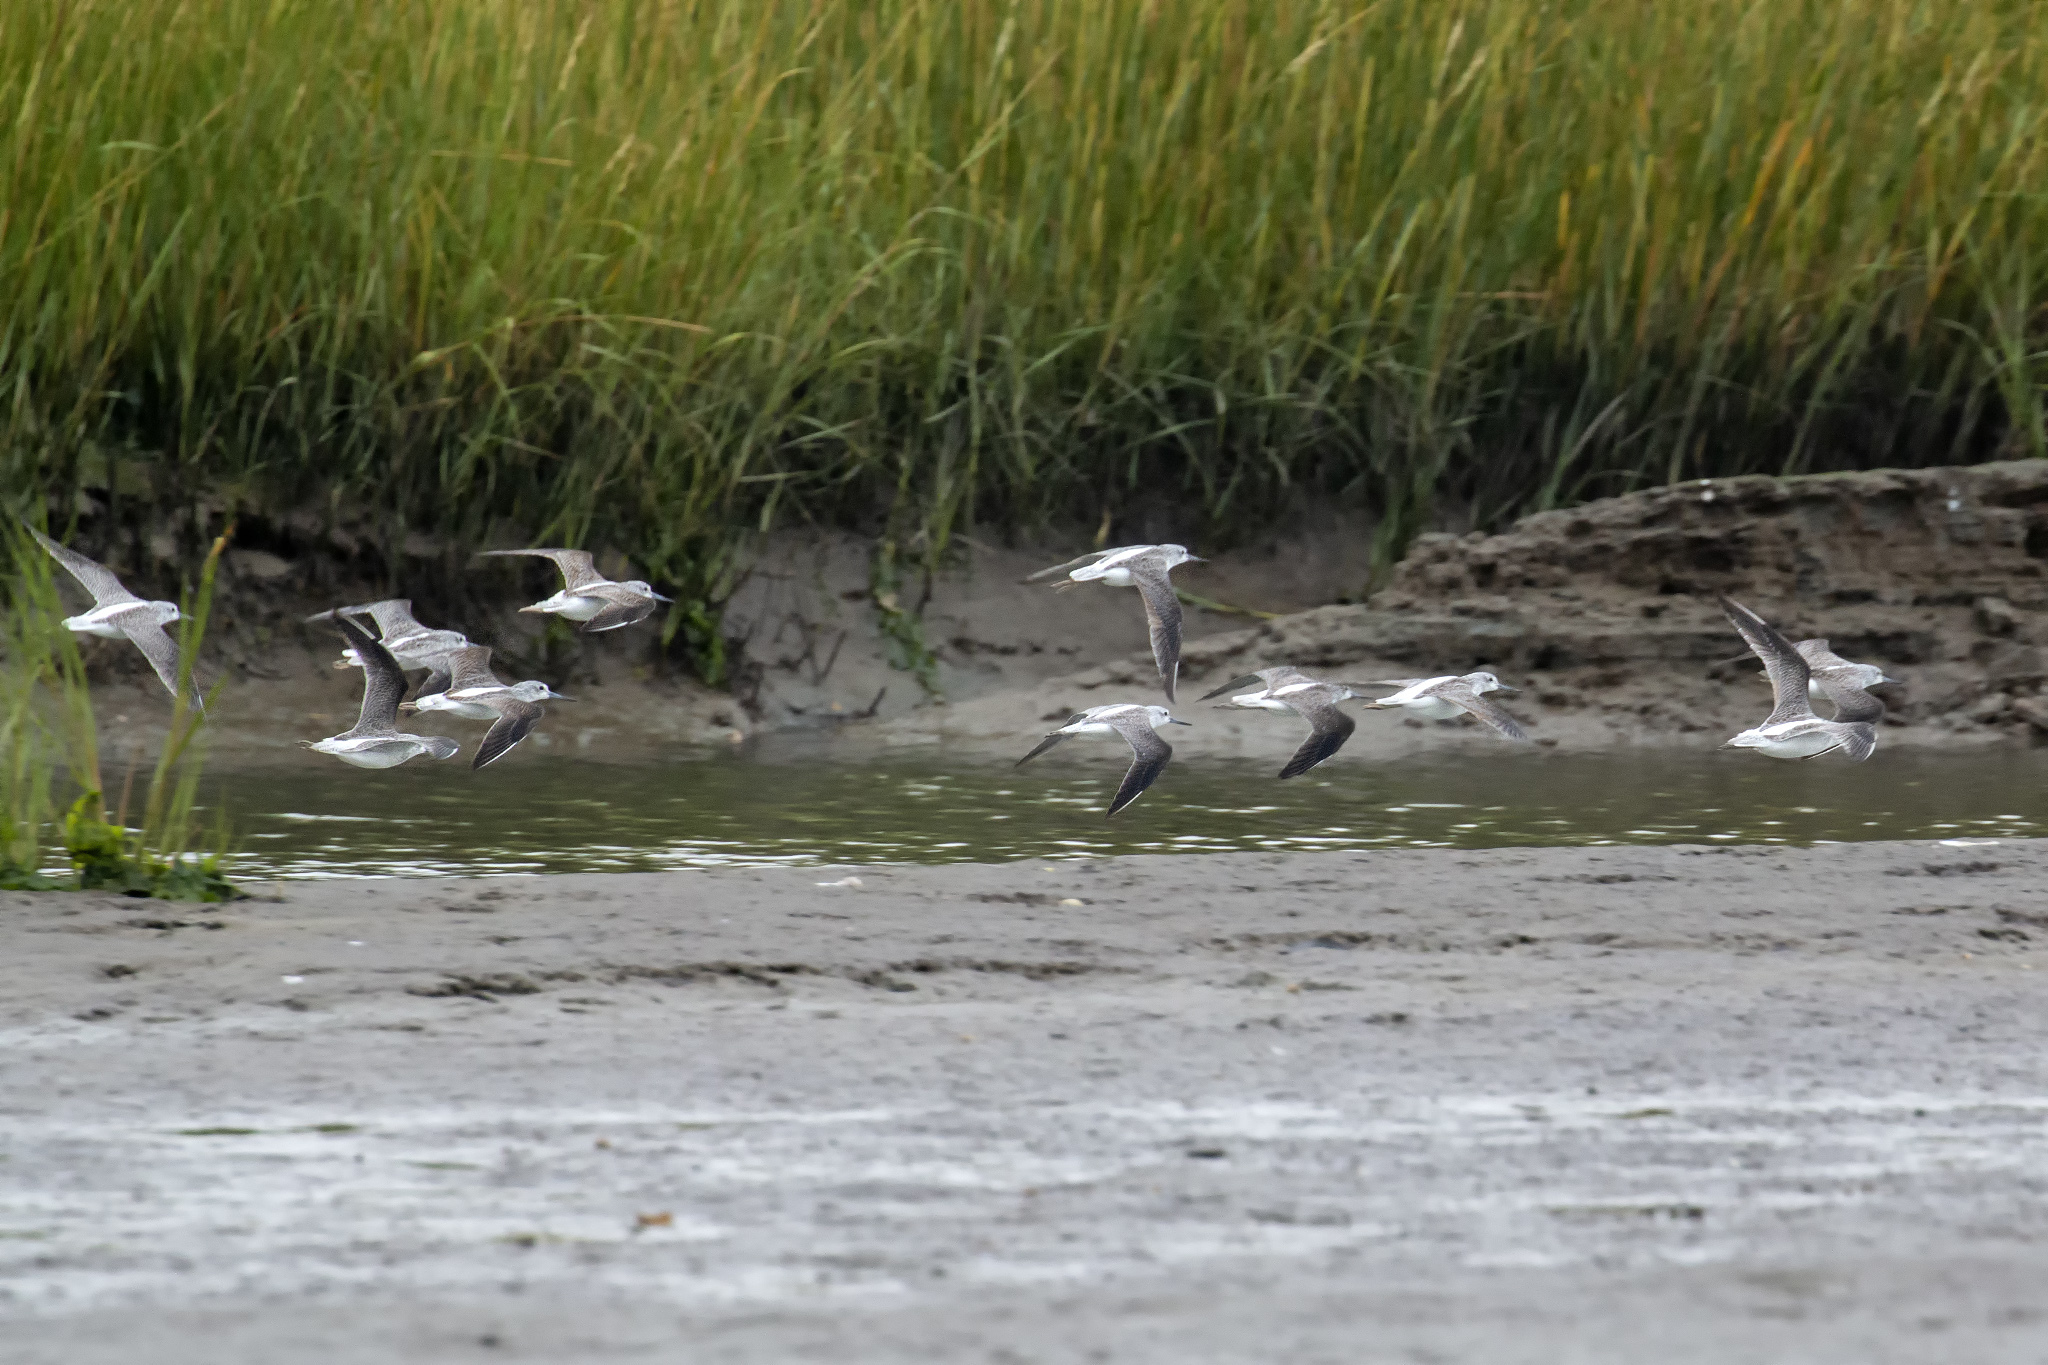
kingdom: Animalia
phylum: Chordata
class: Aves
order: Charadriiformes
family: Scolopacidae
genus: Tringa
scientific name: Tringa nebularia
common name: Common greenshank
